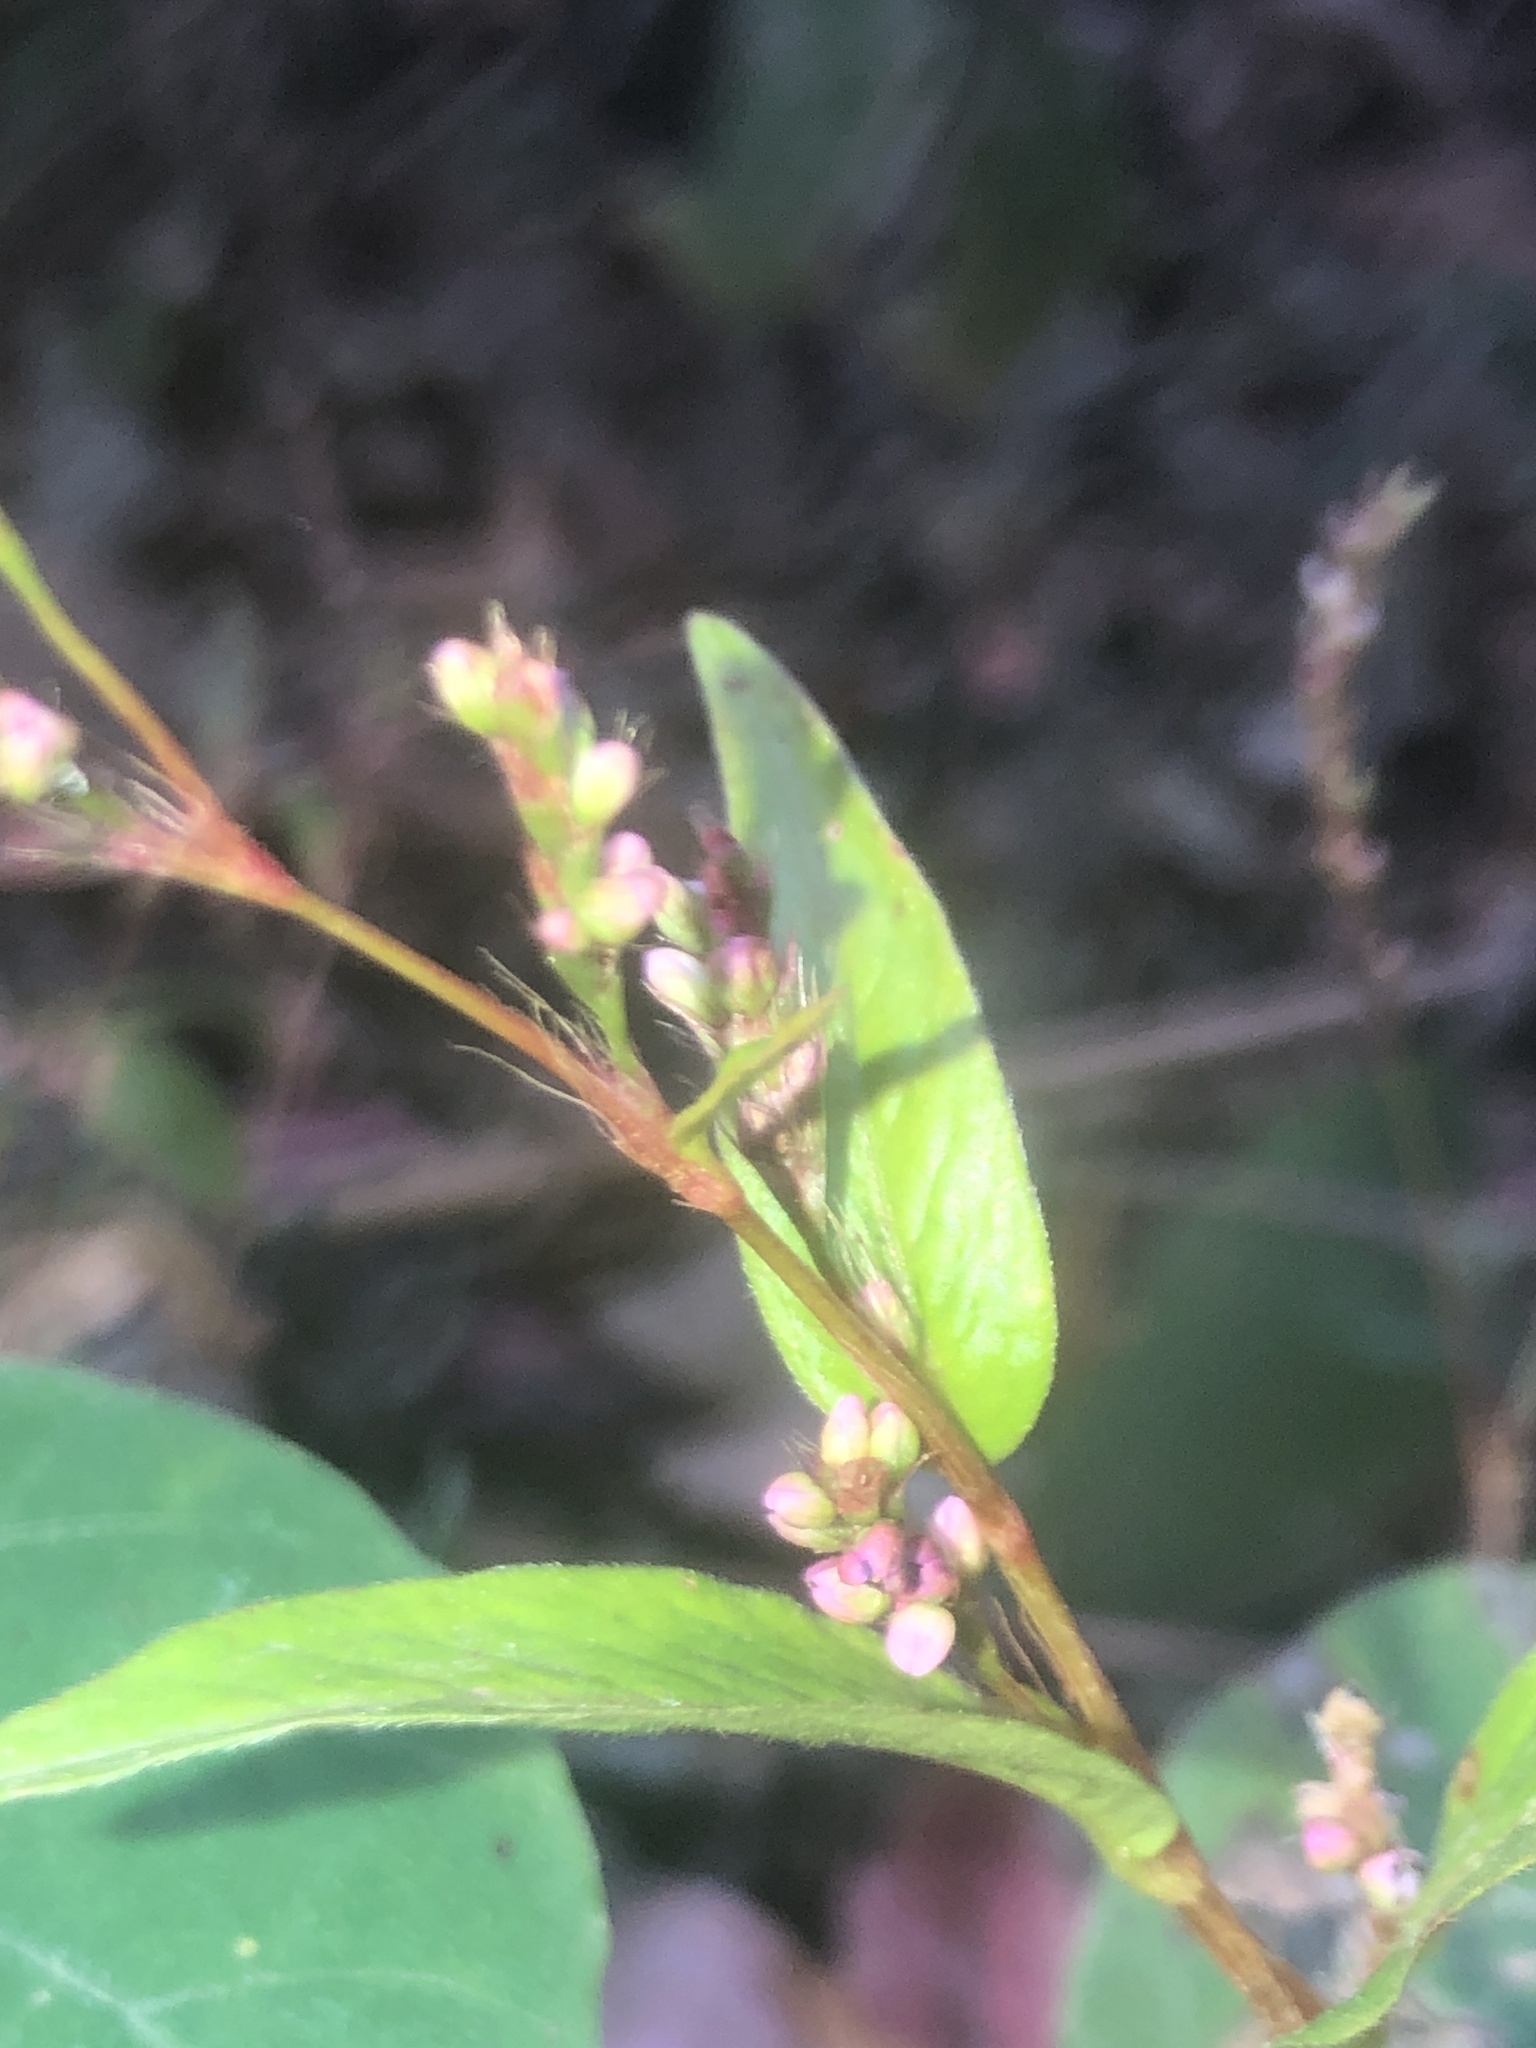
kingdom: Plantae
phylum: Tracheophyta
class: Magnoliopsida
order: Caryophyllales
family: Polygonaceae
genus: Persicaria
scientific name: Persicaria longiseta
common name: Bristly lady's-thumb
